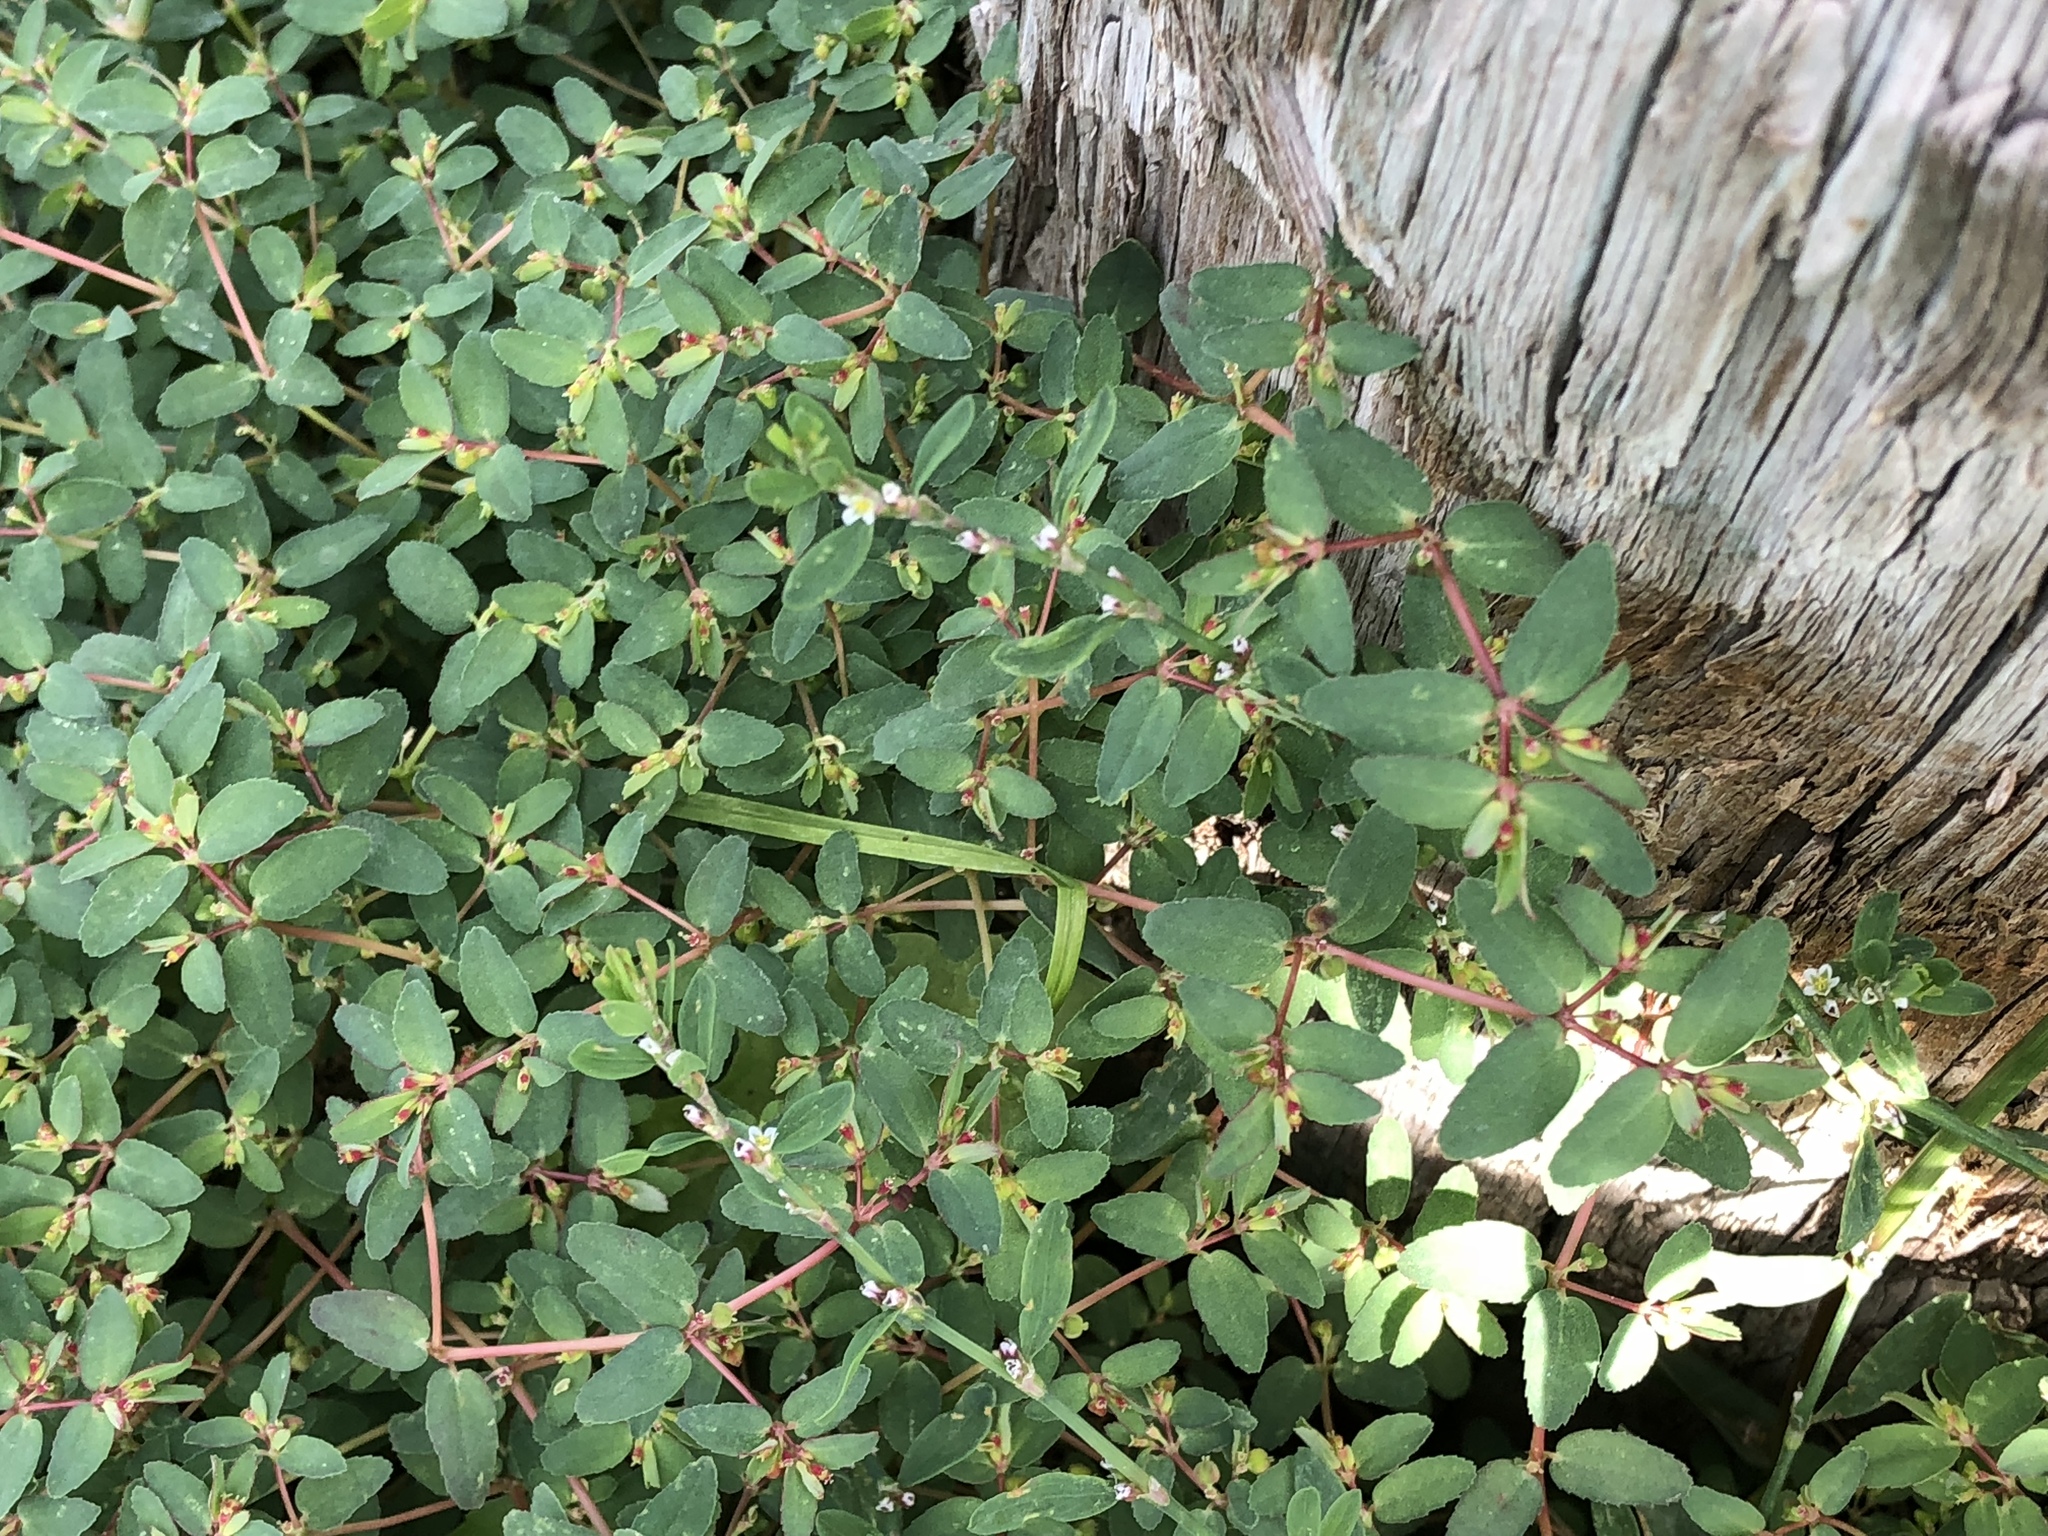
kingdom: Plantae
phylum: Tracheophyta
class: Magnoliopsida
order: Malpighiales
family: Euphorbiaceae
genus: Euphorbia
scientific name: Euphorbia vermiculata
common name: Hairy spurge
